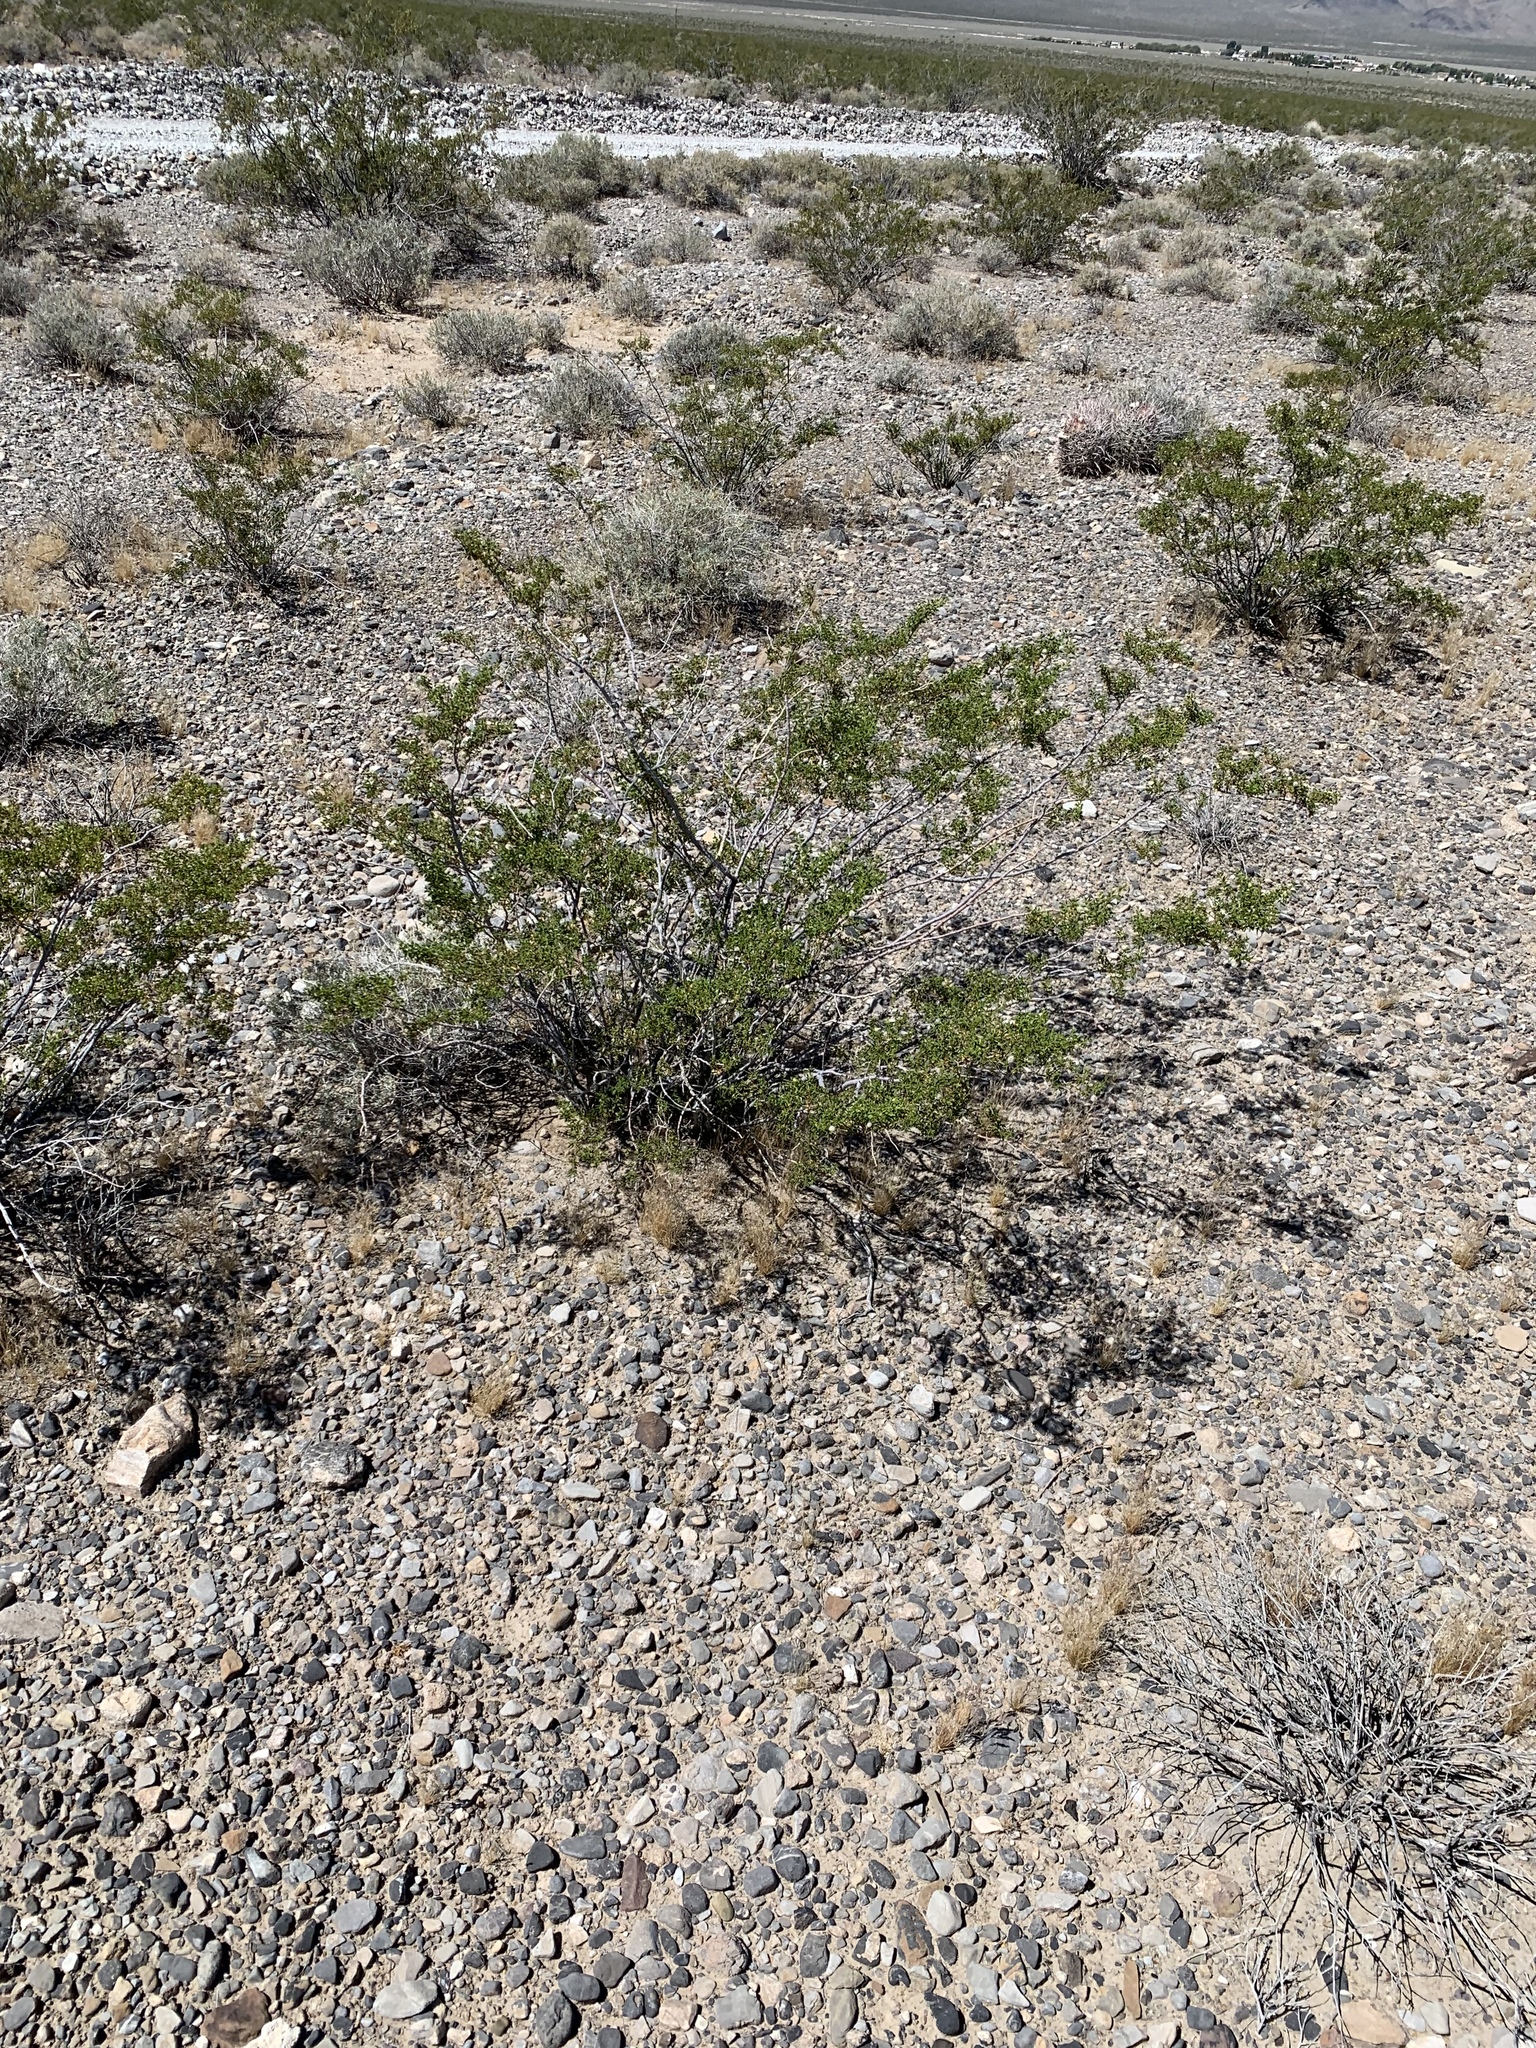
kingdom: Plantae
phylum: Tracheophyta
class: Magnoliopsida
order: Zygophyllales
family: Zygophyllaceae
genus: Larrea
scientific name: Larrea tridentata
